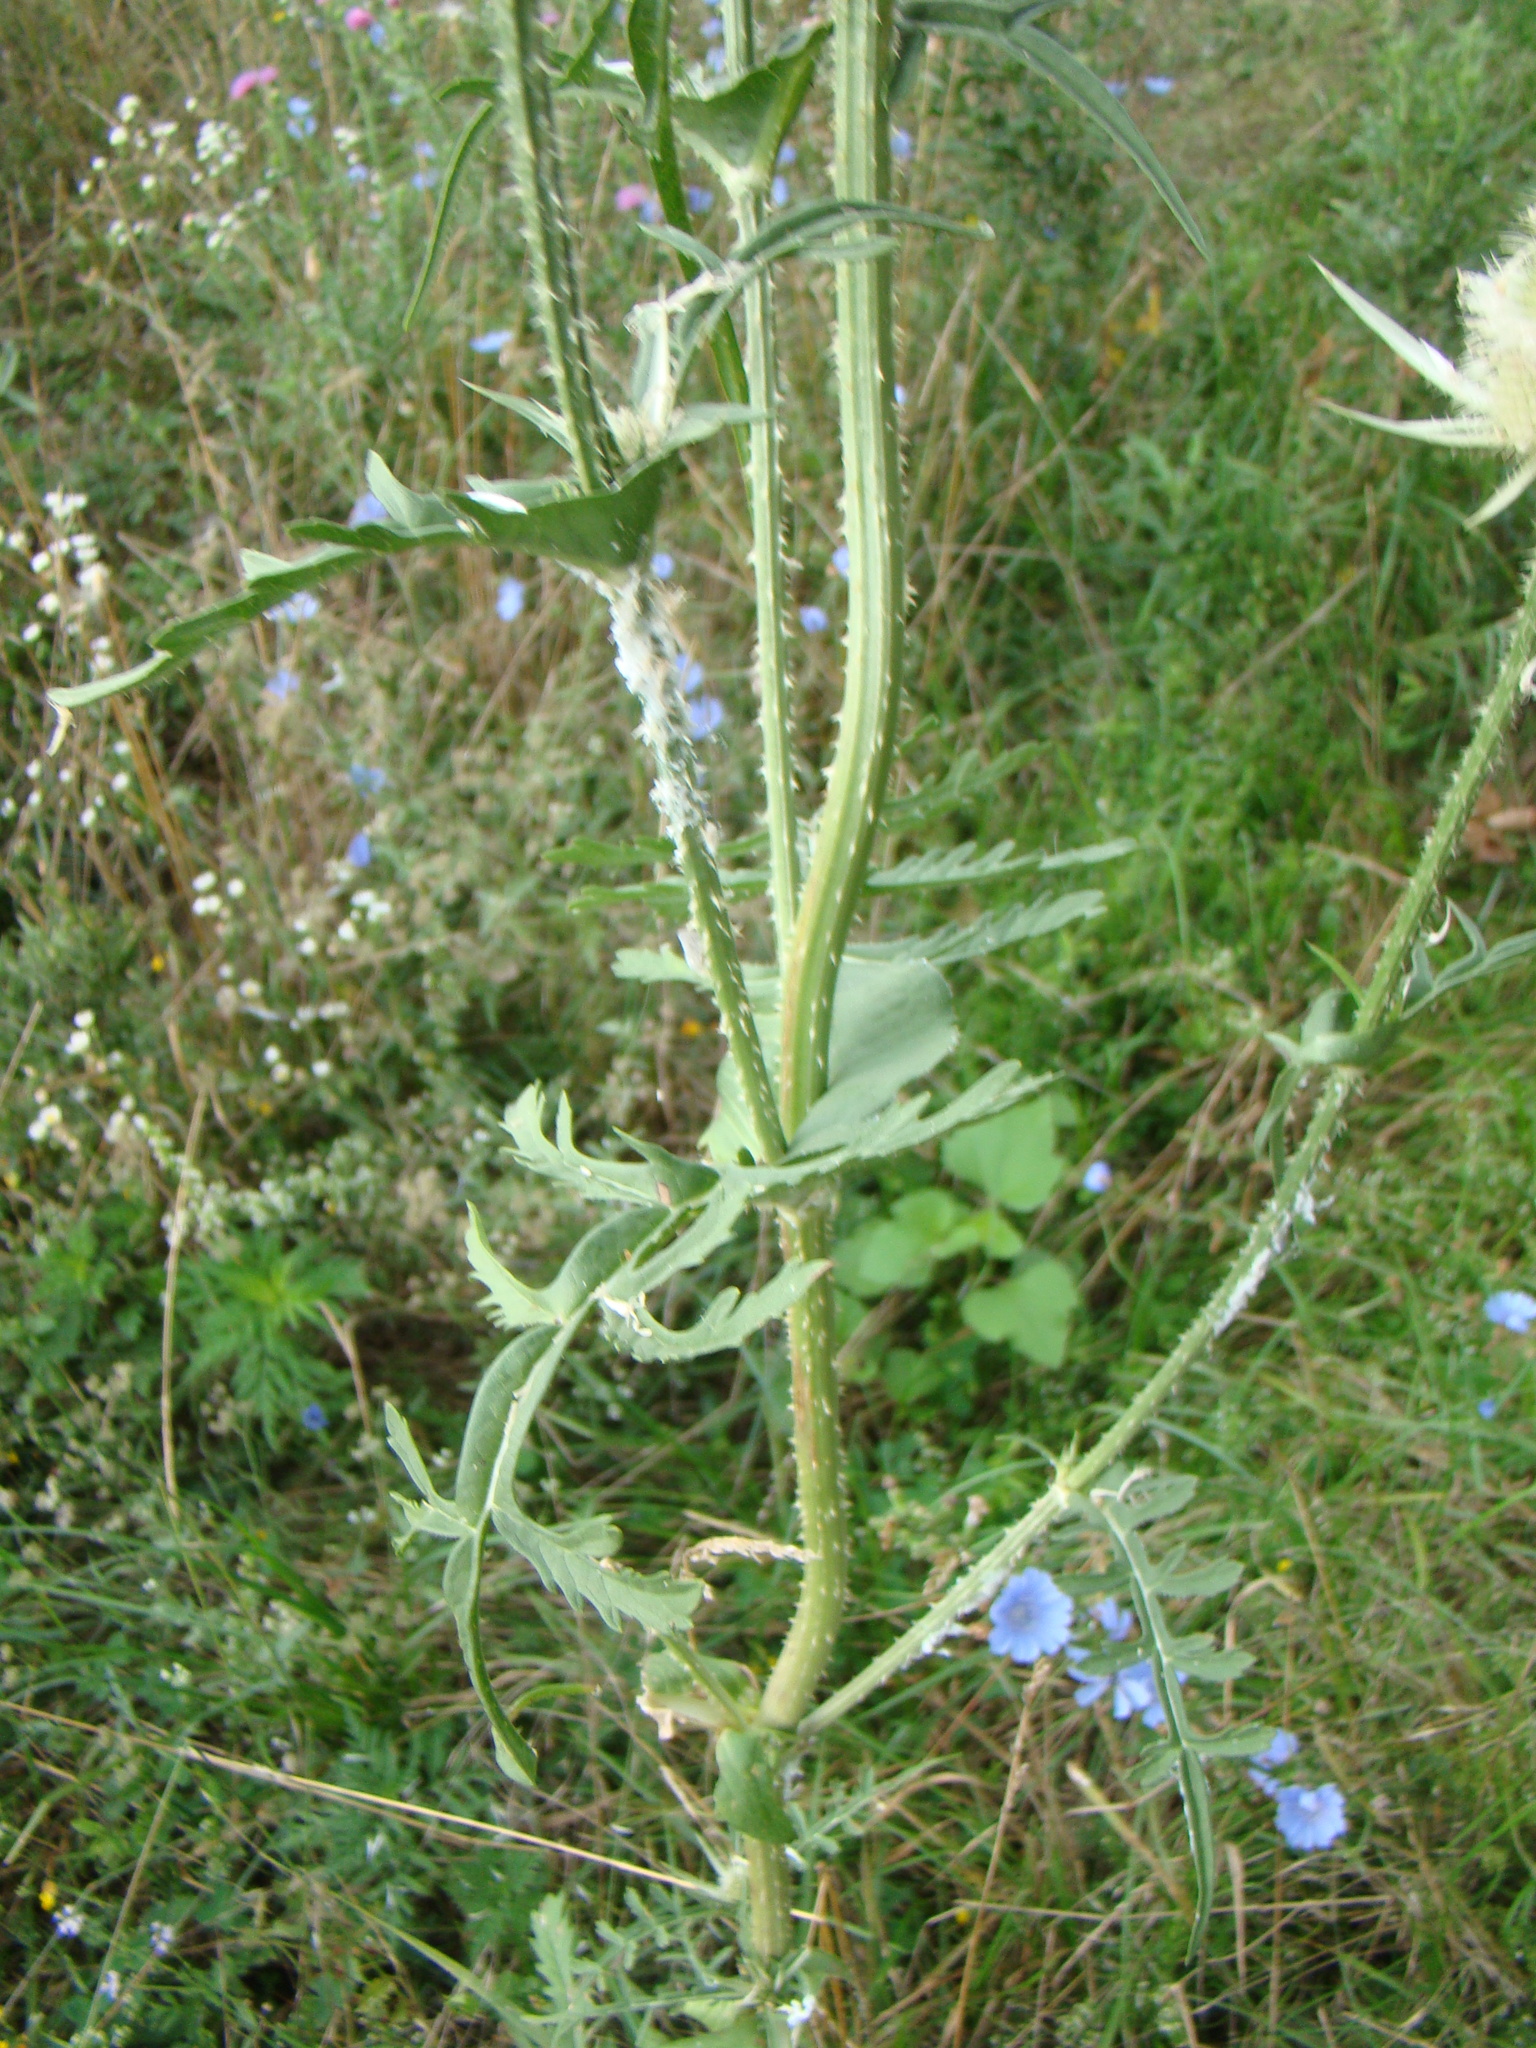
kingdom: Plantae
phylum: Tracheophyta
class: Magnoliopsida
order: Dipsacales
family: Caprifoliaceae
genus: Dipsacus
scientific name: Dipsacus laciniatus
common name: Cut-leaved teasel
